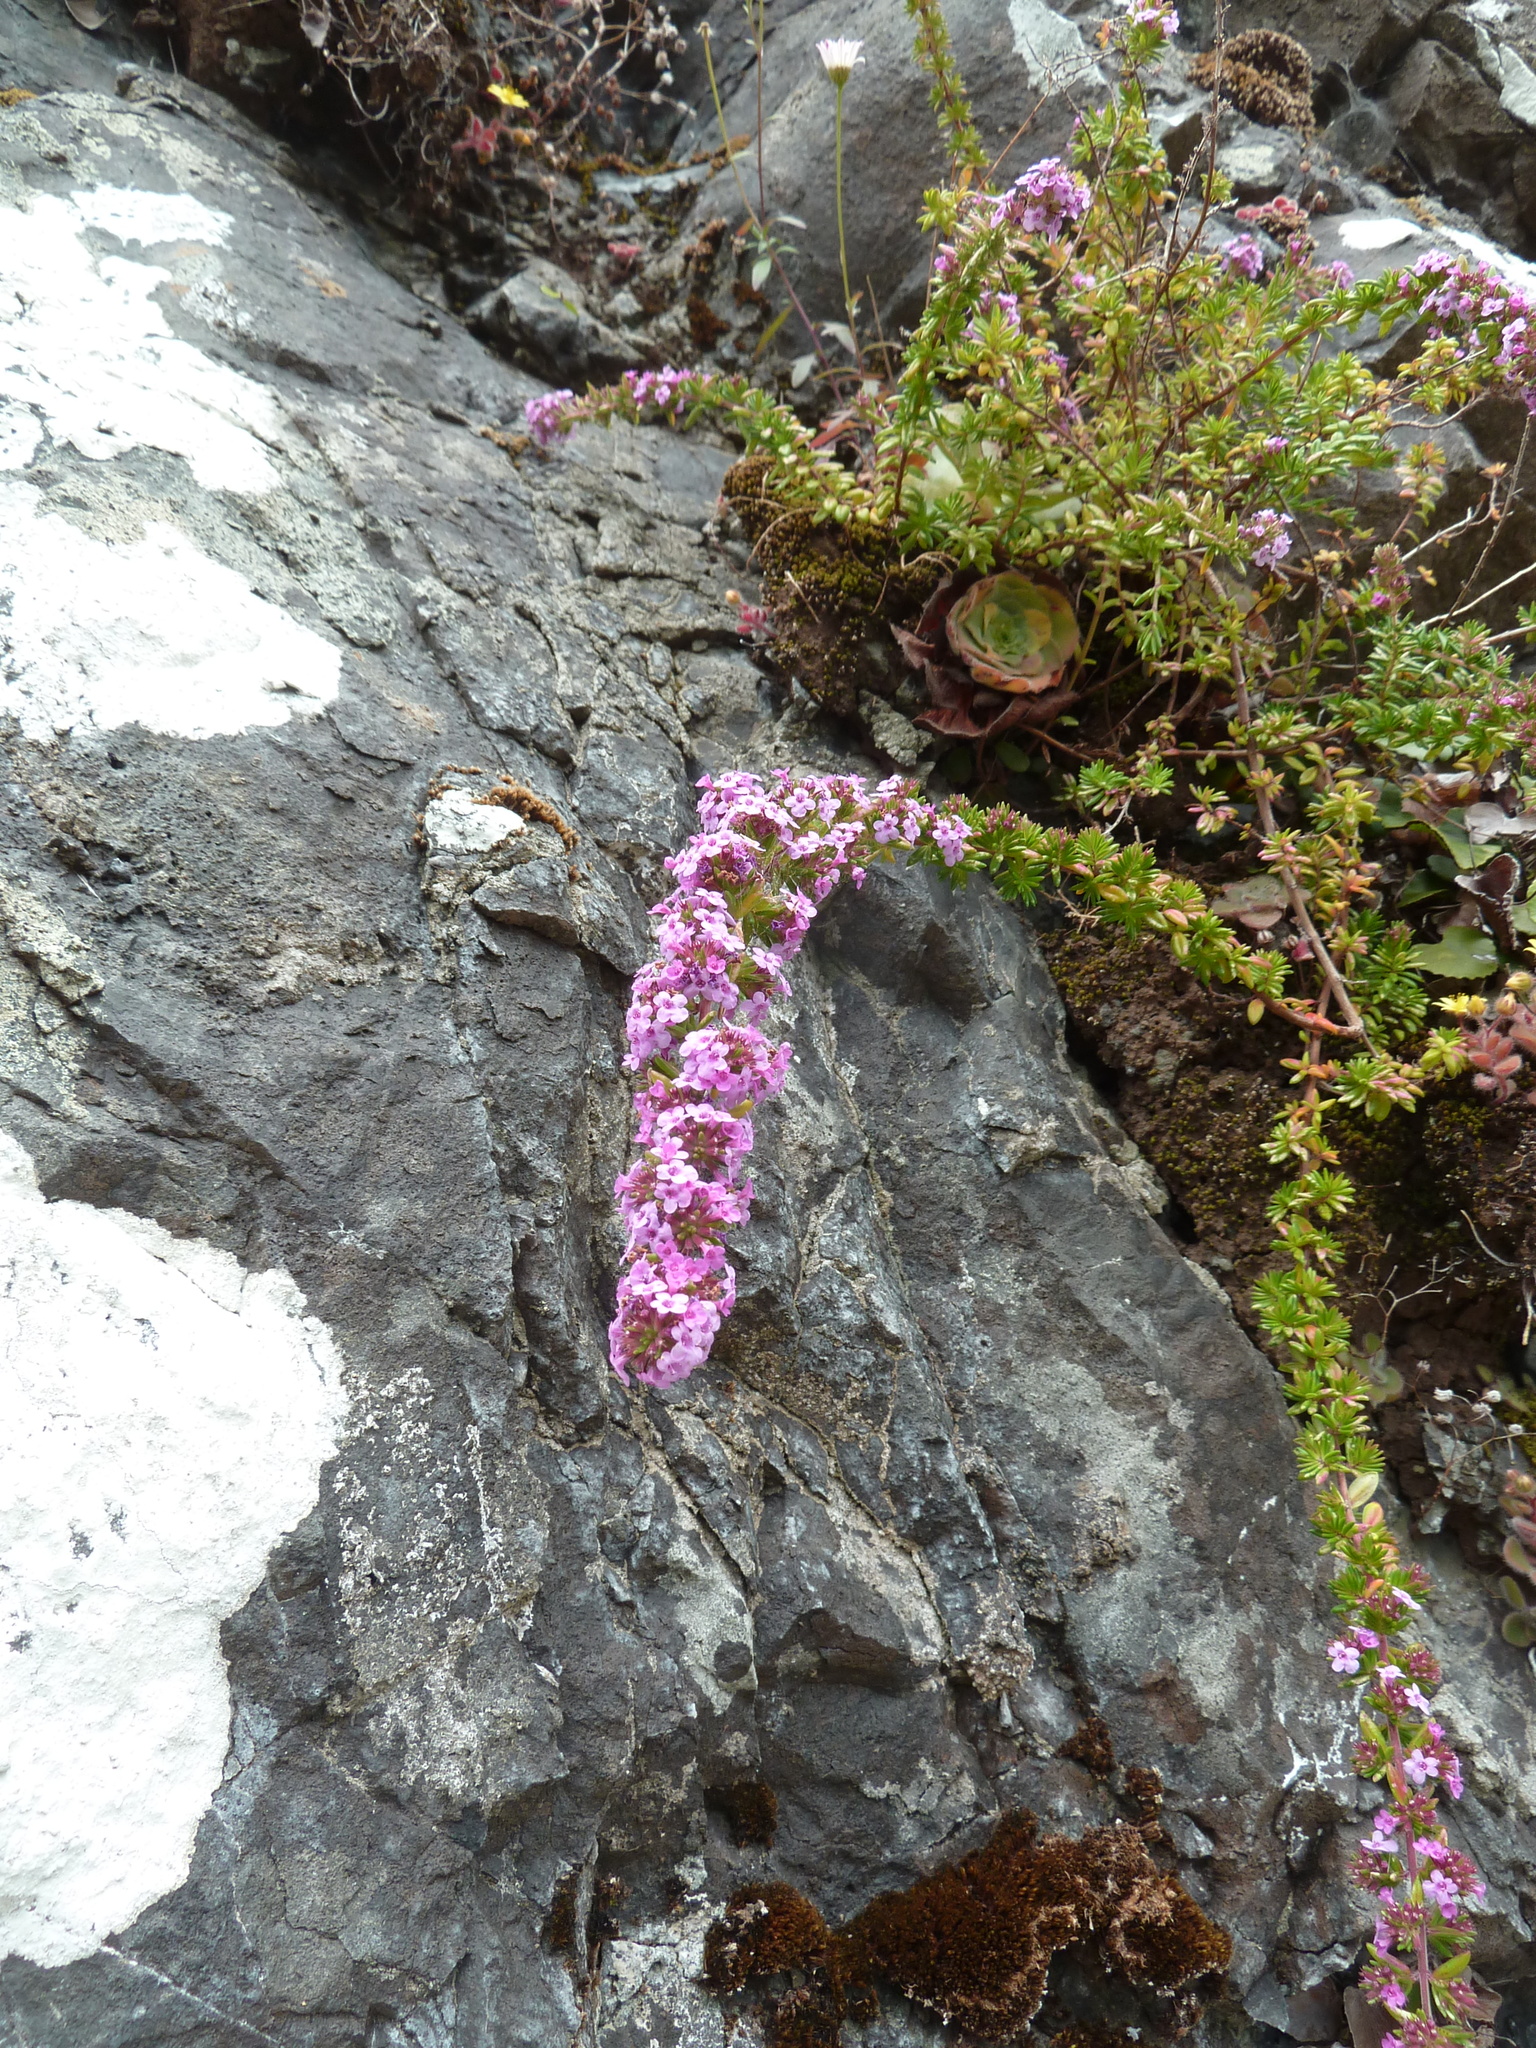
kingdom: Plantae
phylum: Tracheophyta
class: Magnoliopsida
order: Lamiales
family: Lamiaceae
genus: Micromeria
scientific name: Micromeria maderensis
